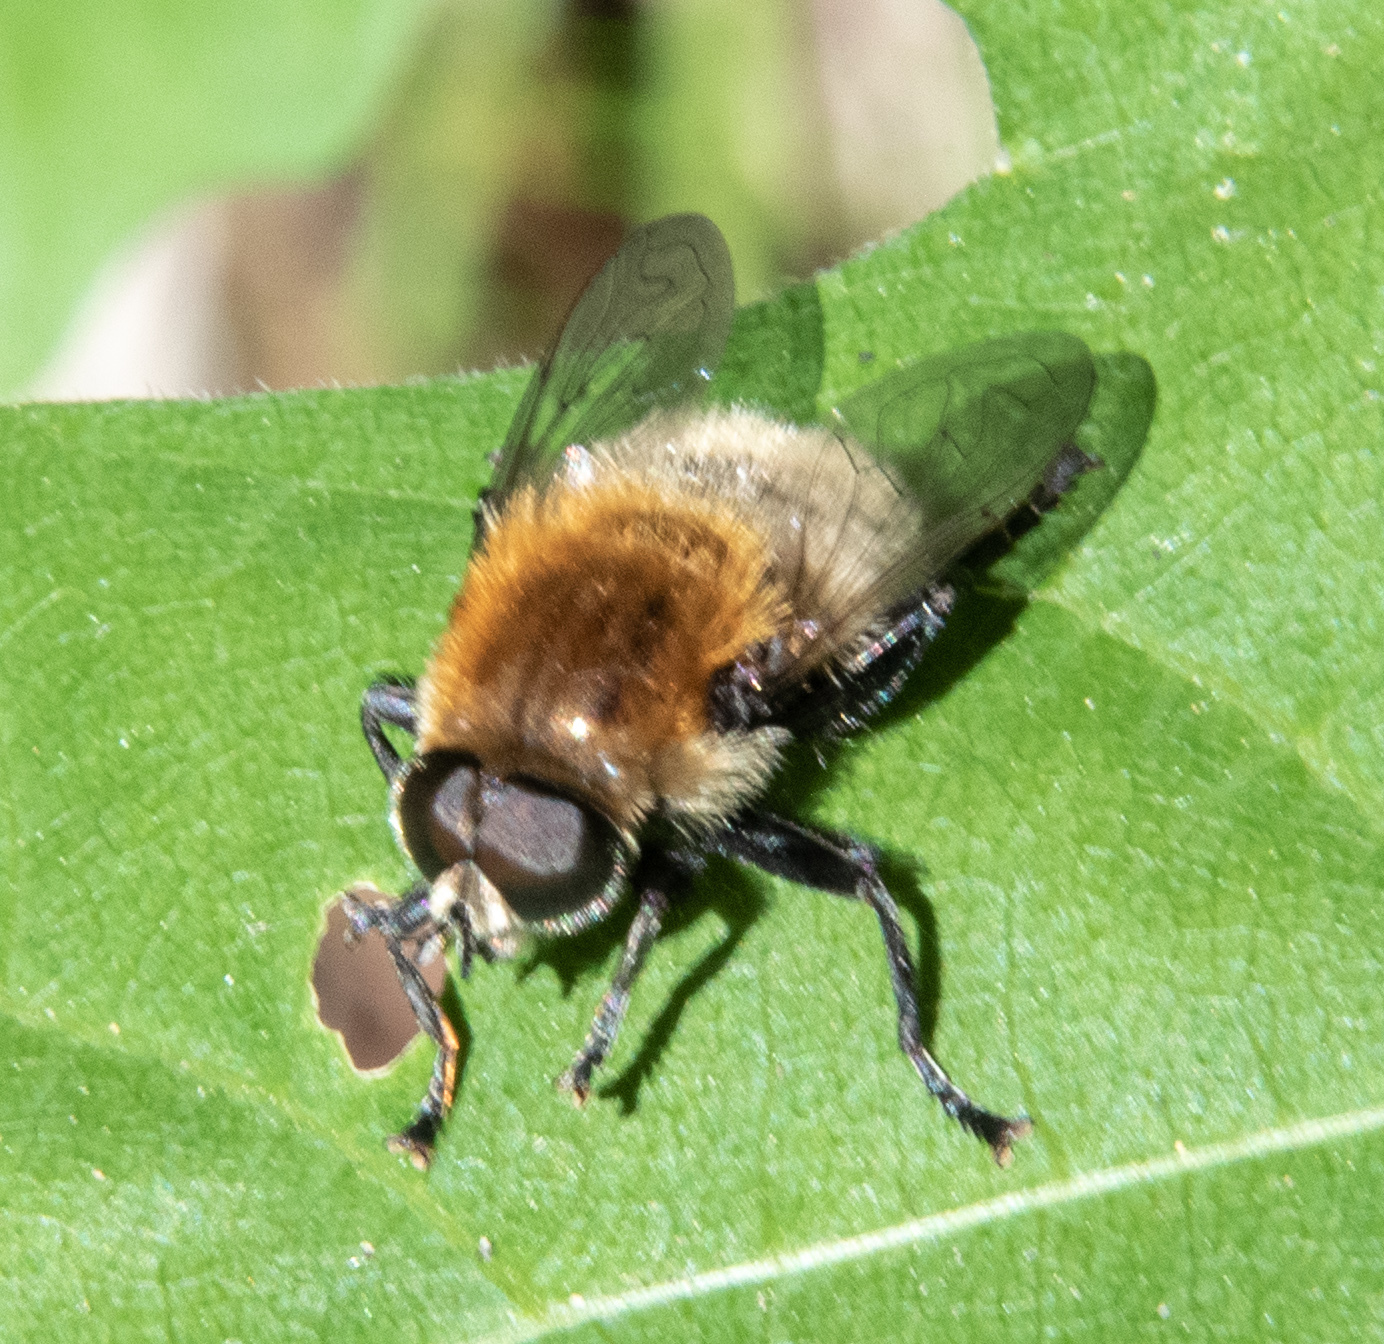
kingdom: Animalia
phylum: Arthropoda
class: Insecta
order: Diptera
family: Syrphidae
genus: Merodon
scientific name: Merodon equestris
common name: Greater bulb-fly
